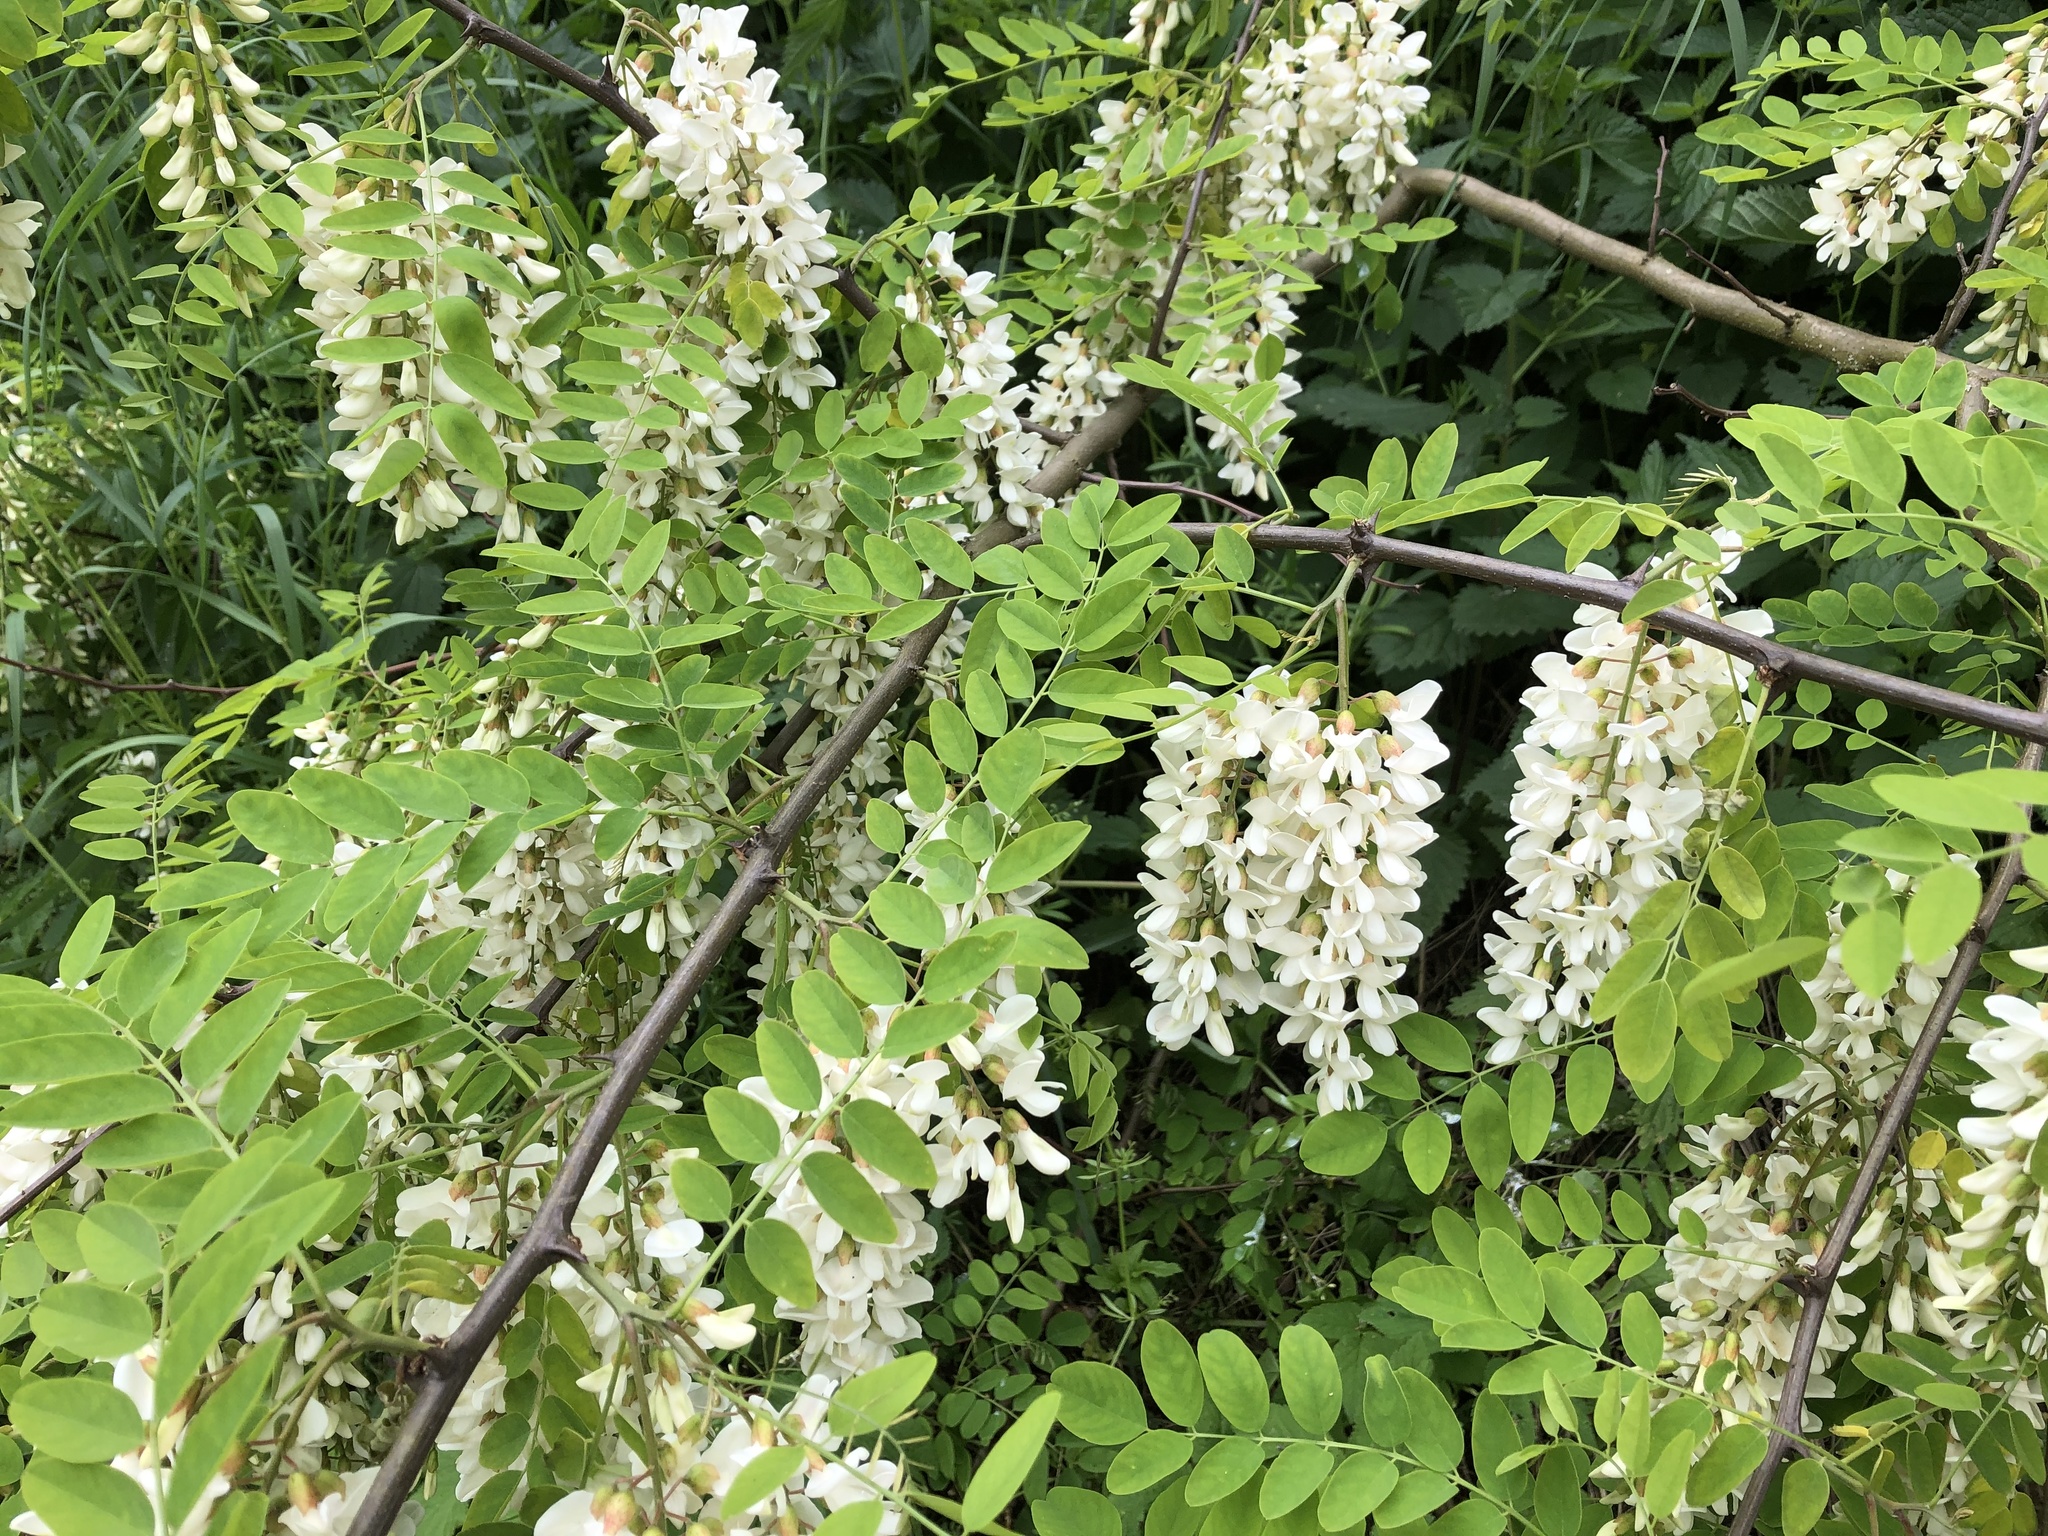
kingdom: Plantae
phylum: Tracheophyta
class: Magnoliopsida
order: Fabales
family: Fabaceae
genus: Robinia
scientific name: Robinia pseudoacacia
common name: Black locust
